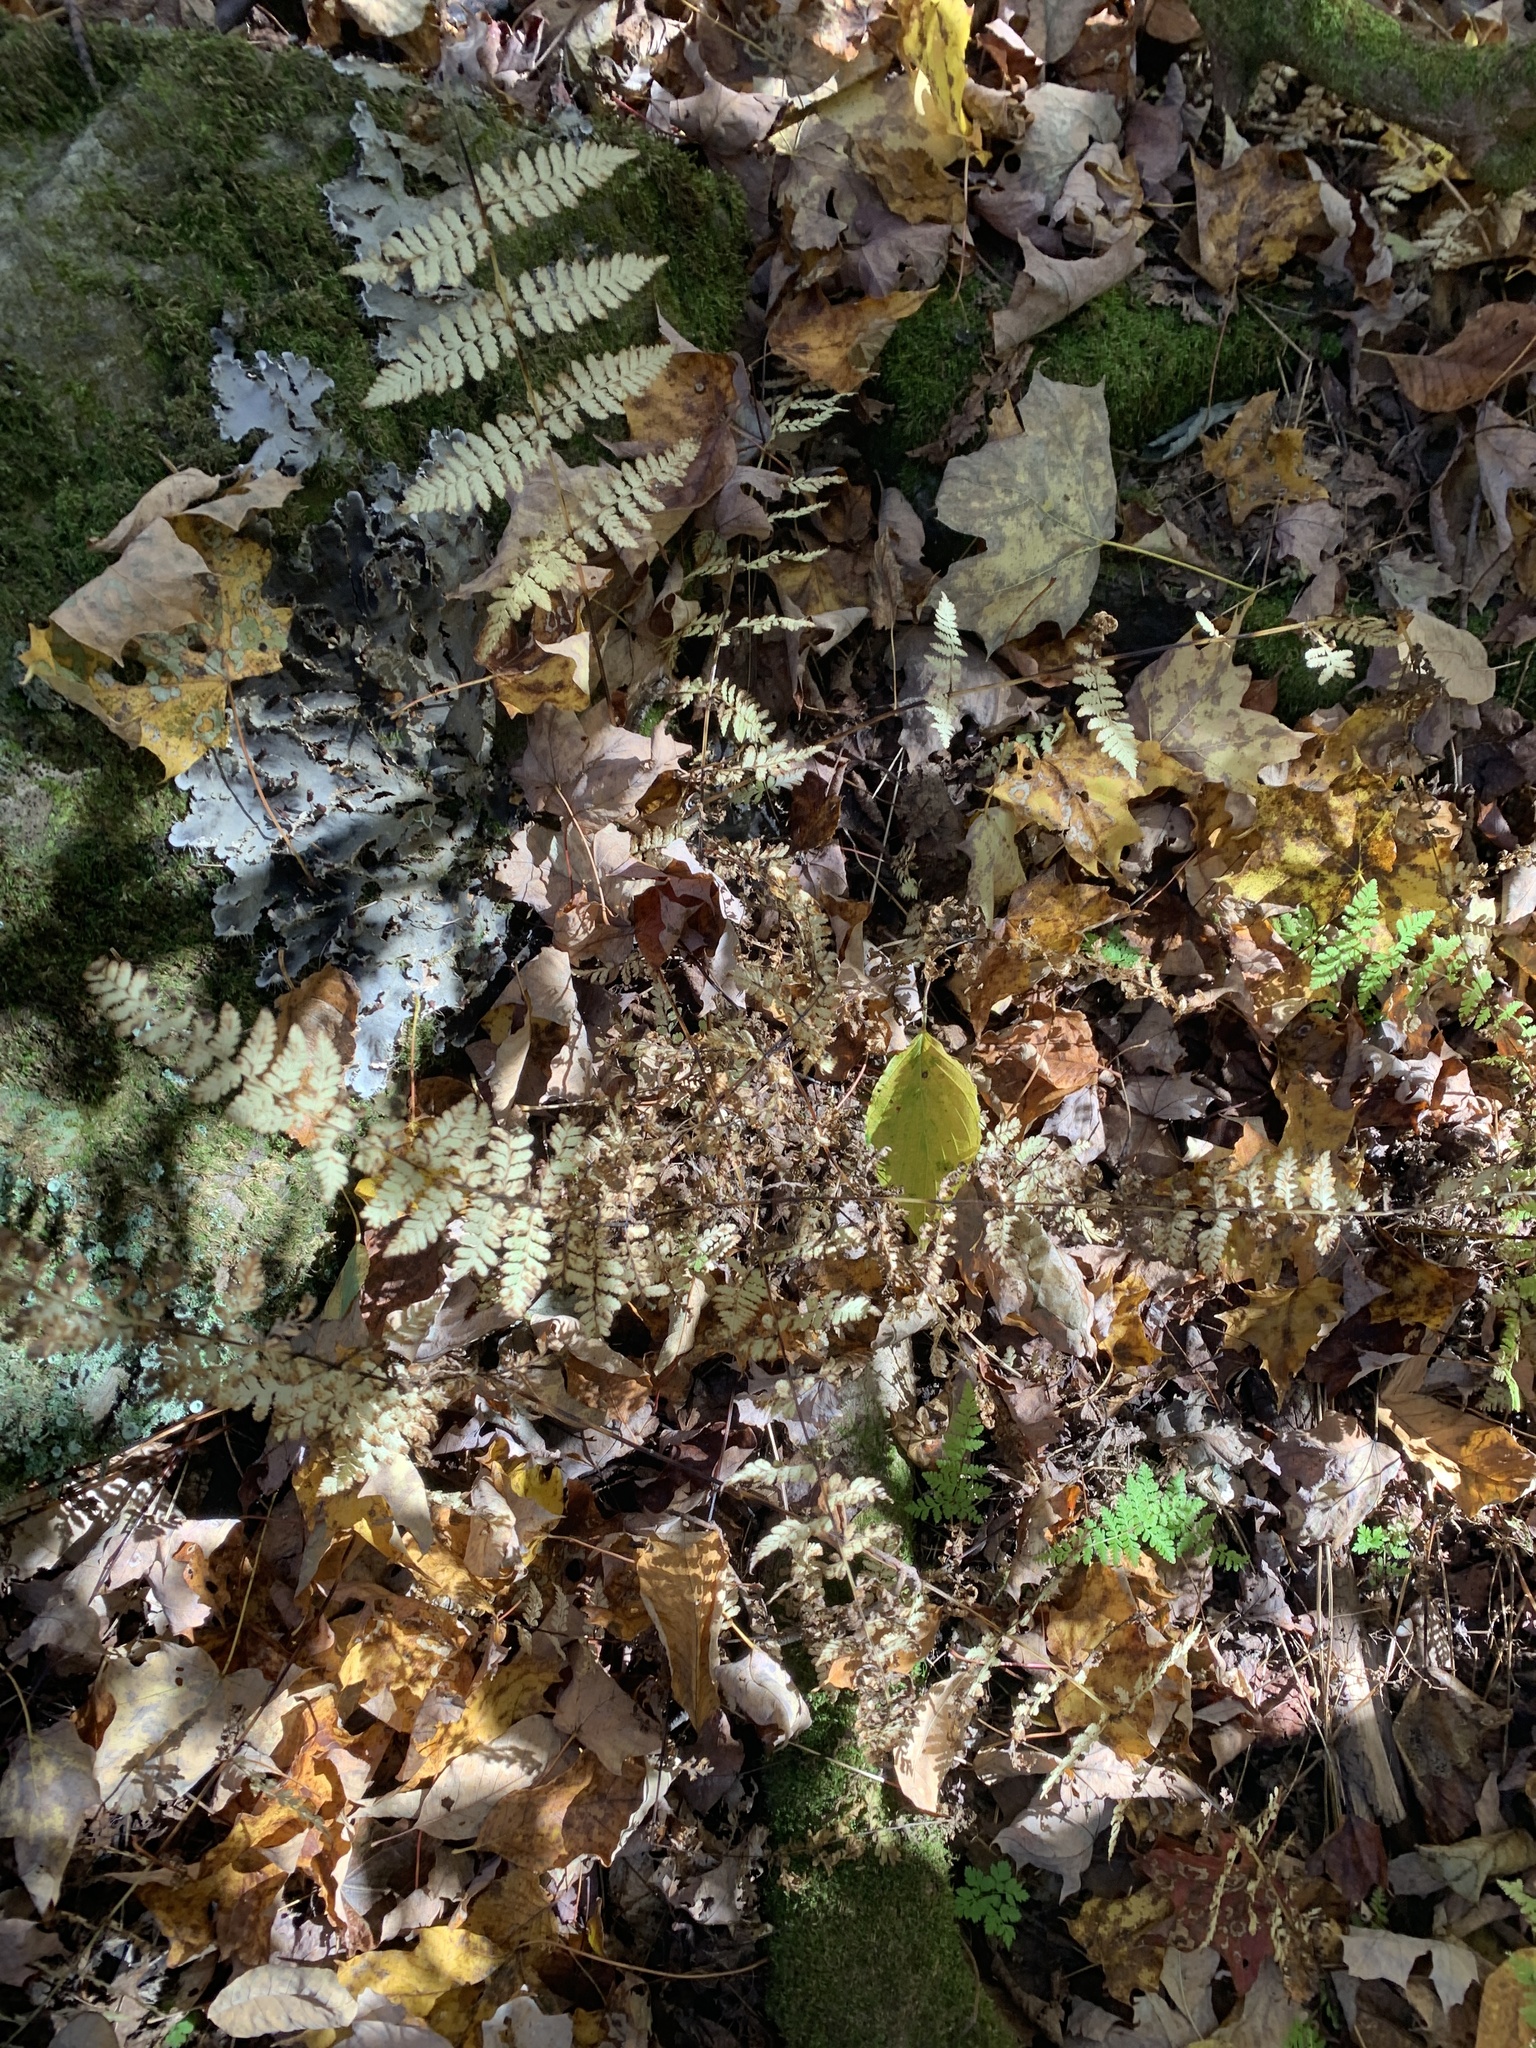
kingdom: Plantae
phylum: Tracheophyta
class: Polypodiopsida
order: Polypodiales
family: Cystopteridaceae
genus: Cystopteris
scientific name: Cystopteris bulbifera
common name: Bulblet bladder fern
